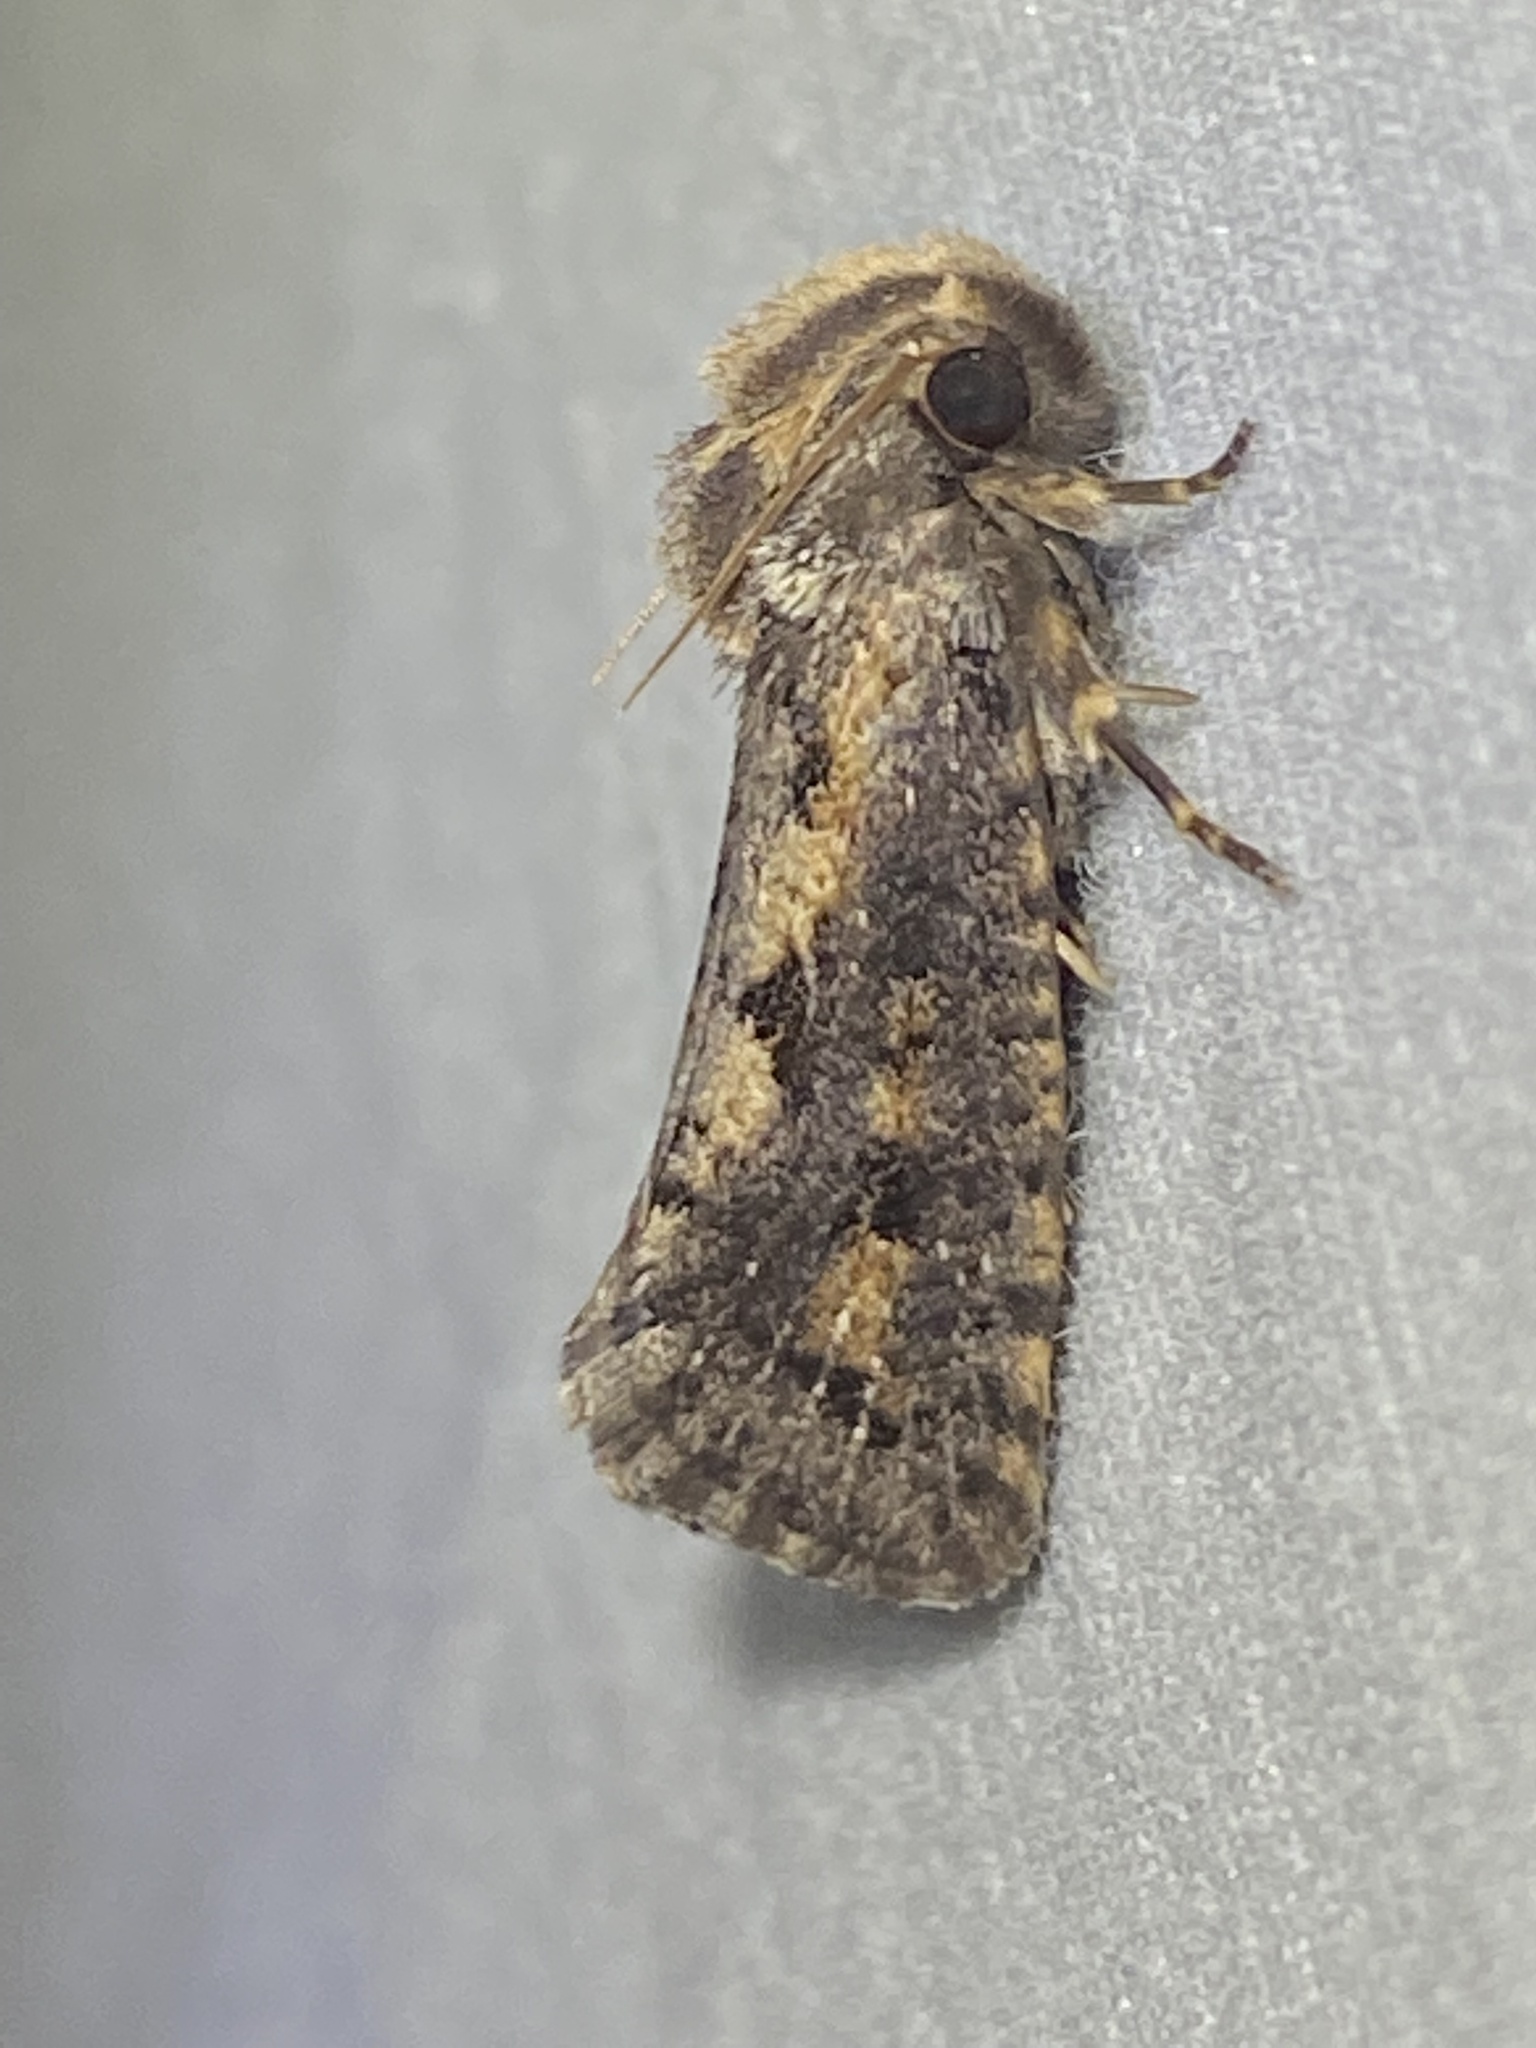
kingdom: Animalia
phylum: Arthropoda
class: Insecta
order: Lepidoptera
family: Tineidae
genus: Acrolophus
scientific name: Acrolophus popeanella
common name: Clemens' grass tubeworm moth
